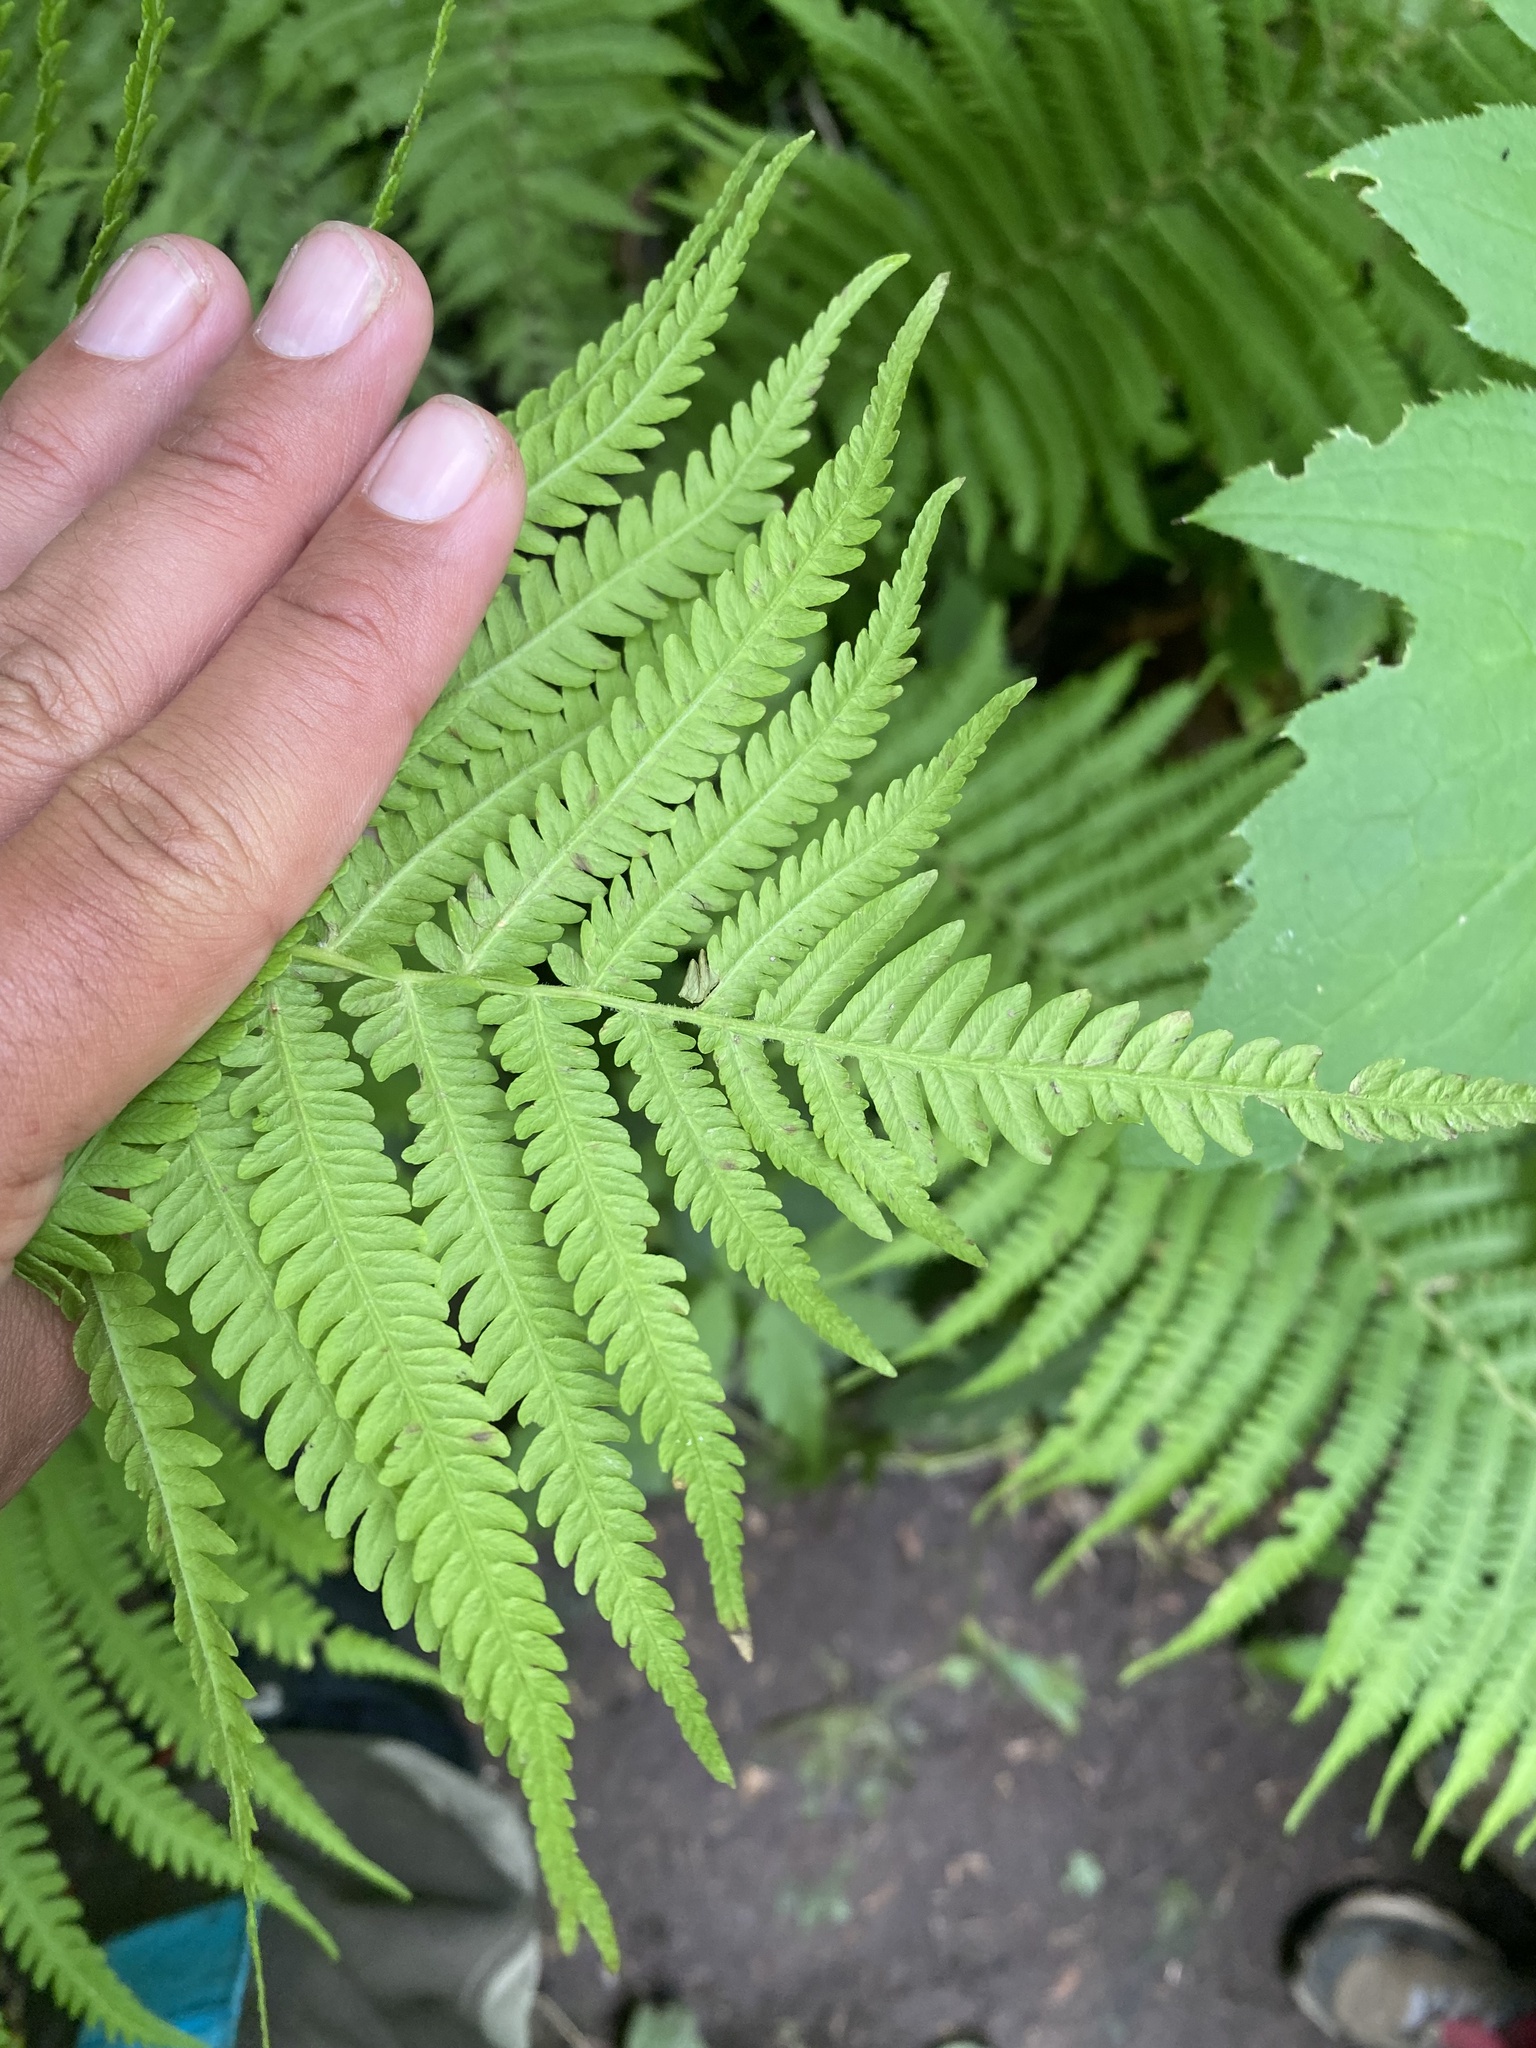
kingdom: Plantae
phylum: Tracheophyta
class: Polypodiopsida
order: Polypodiales
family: Onocleaceae
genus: Matteuccia
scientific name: Matteuccia struthiopteris
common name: Ostrich fern
